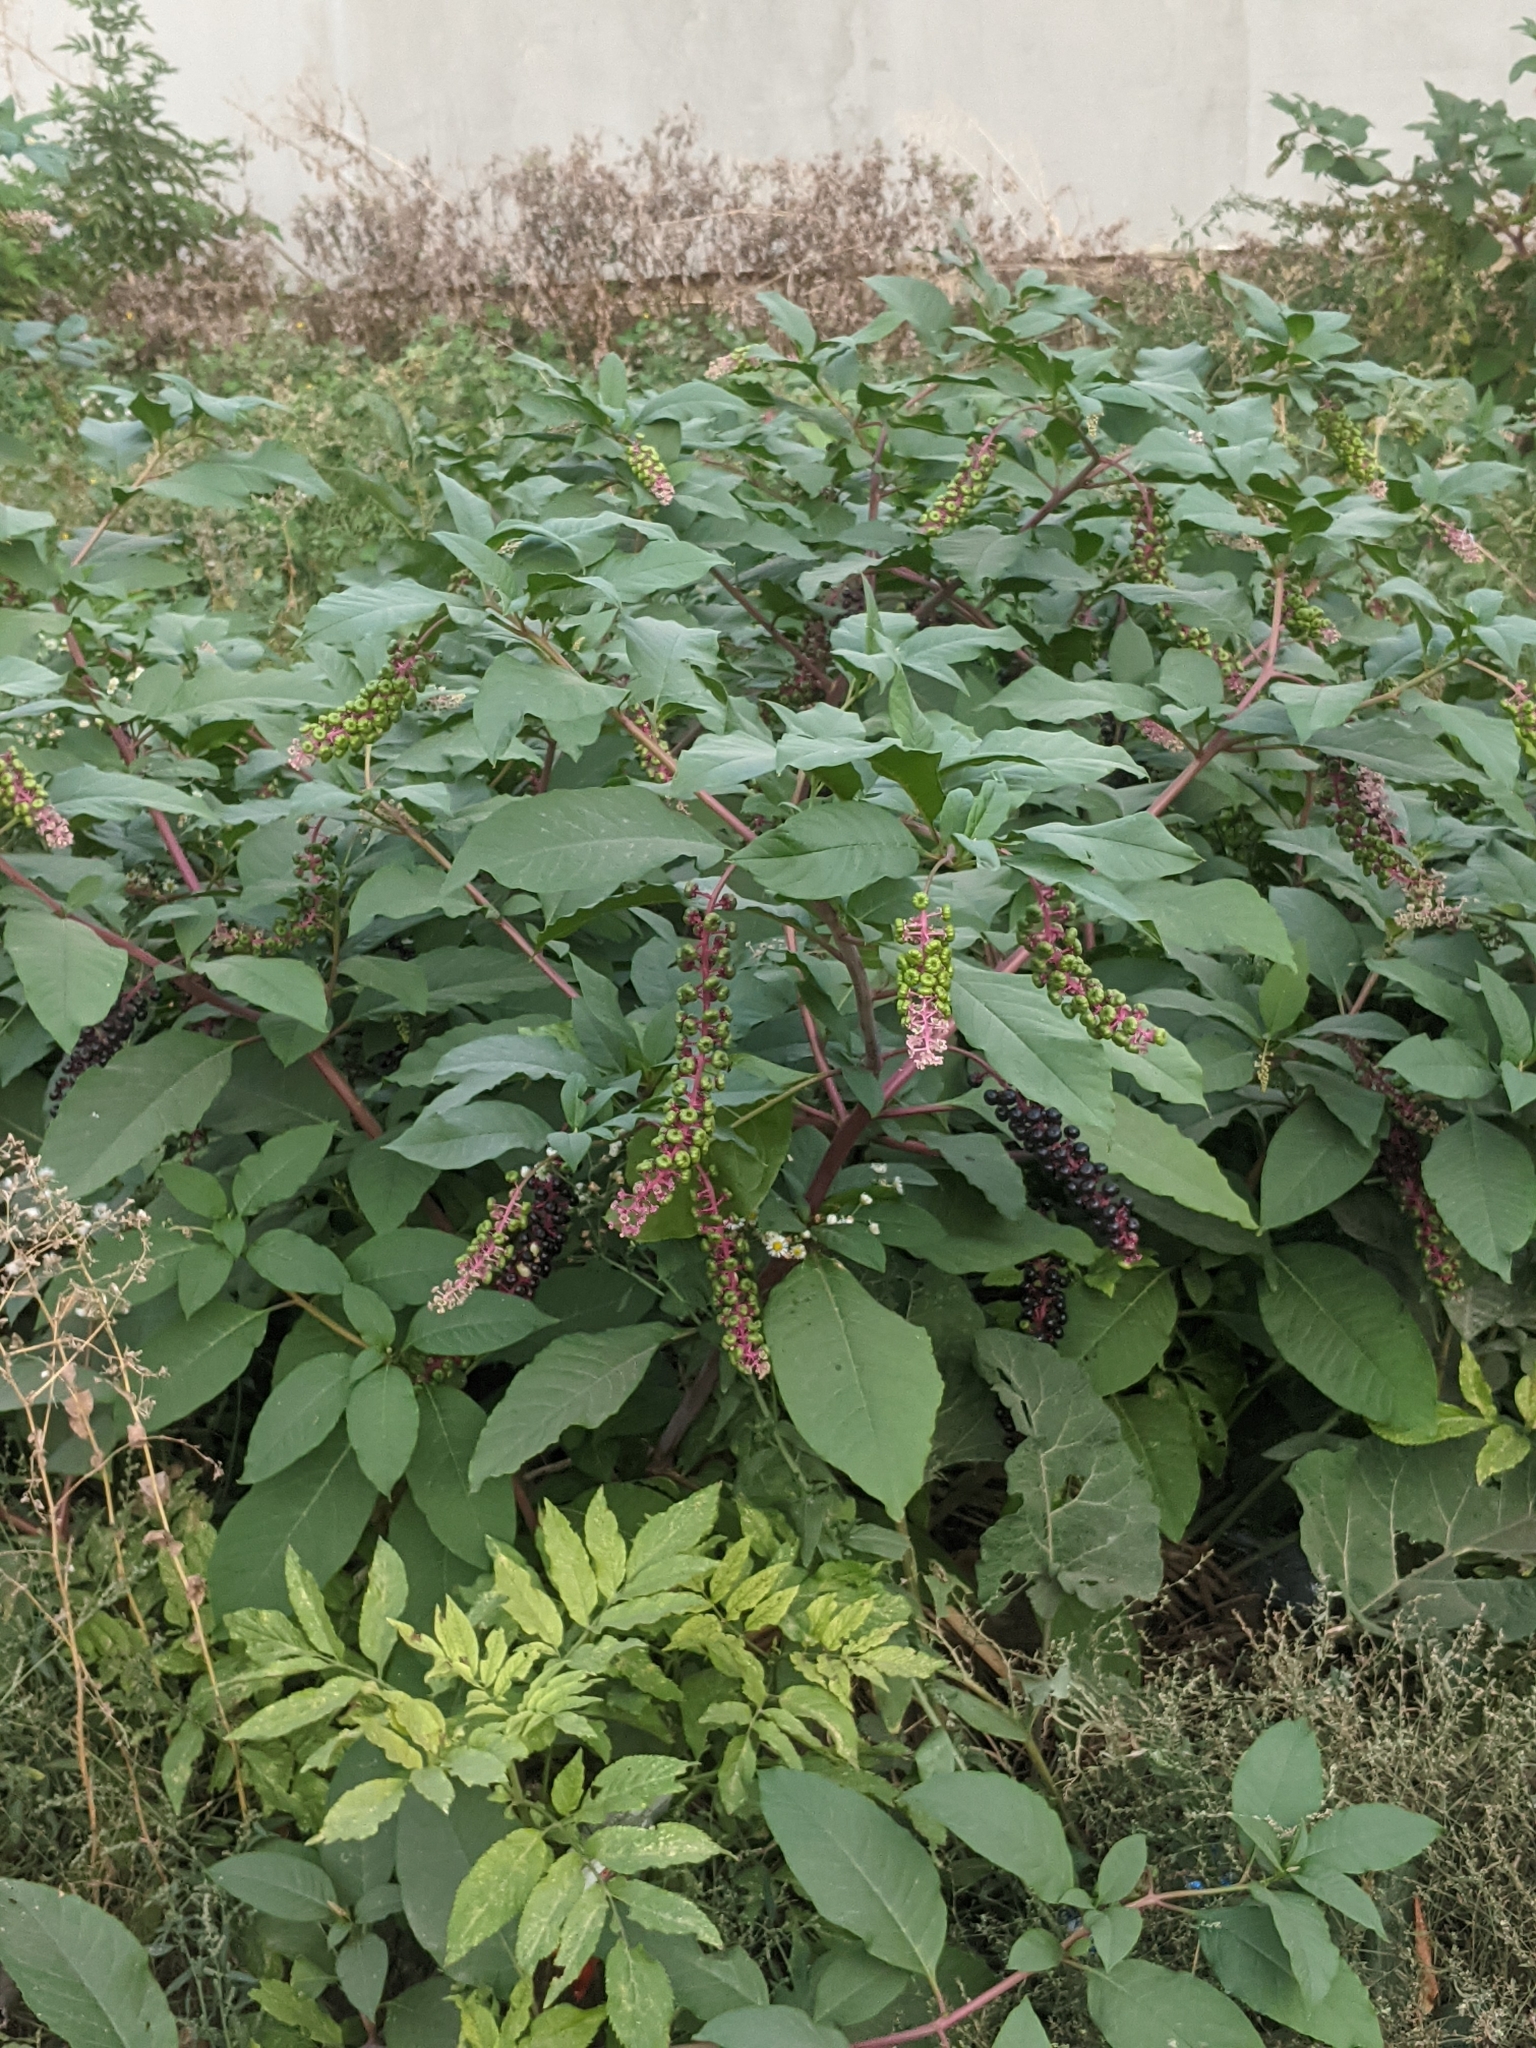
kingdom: Plantae
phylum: Tracheophyta
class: Magnoliopsida
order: Caryophyllales
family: Phytolaccaceae
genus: Phytolacca
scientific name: Phytolacca americana
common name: American pokeweed
